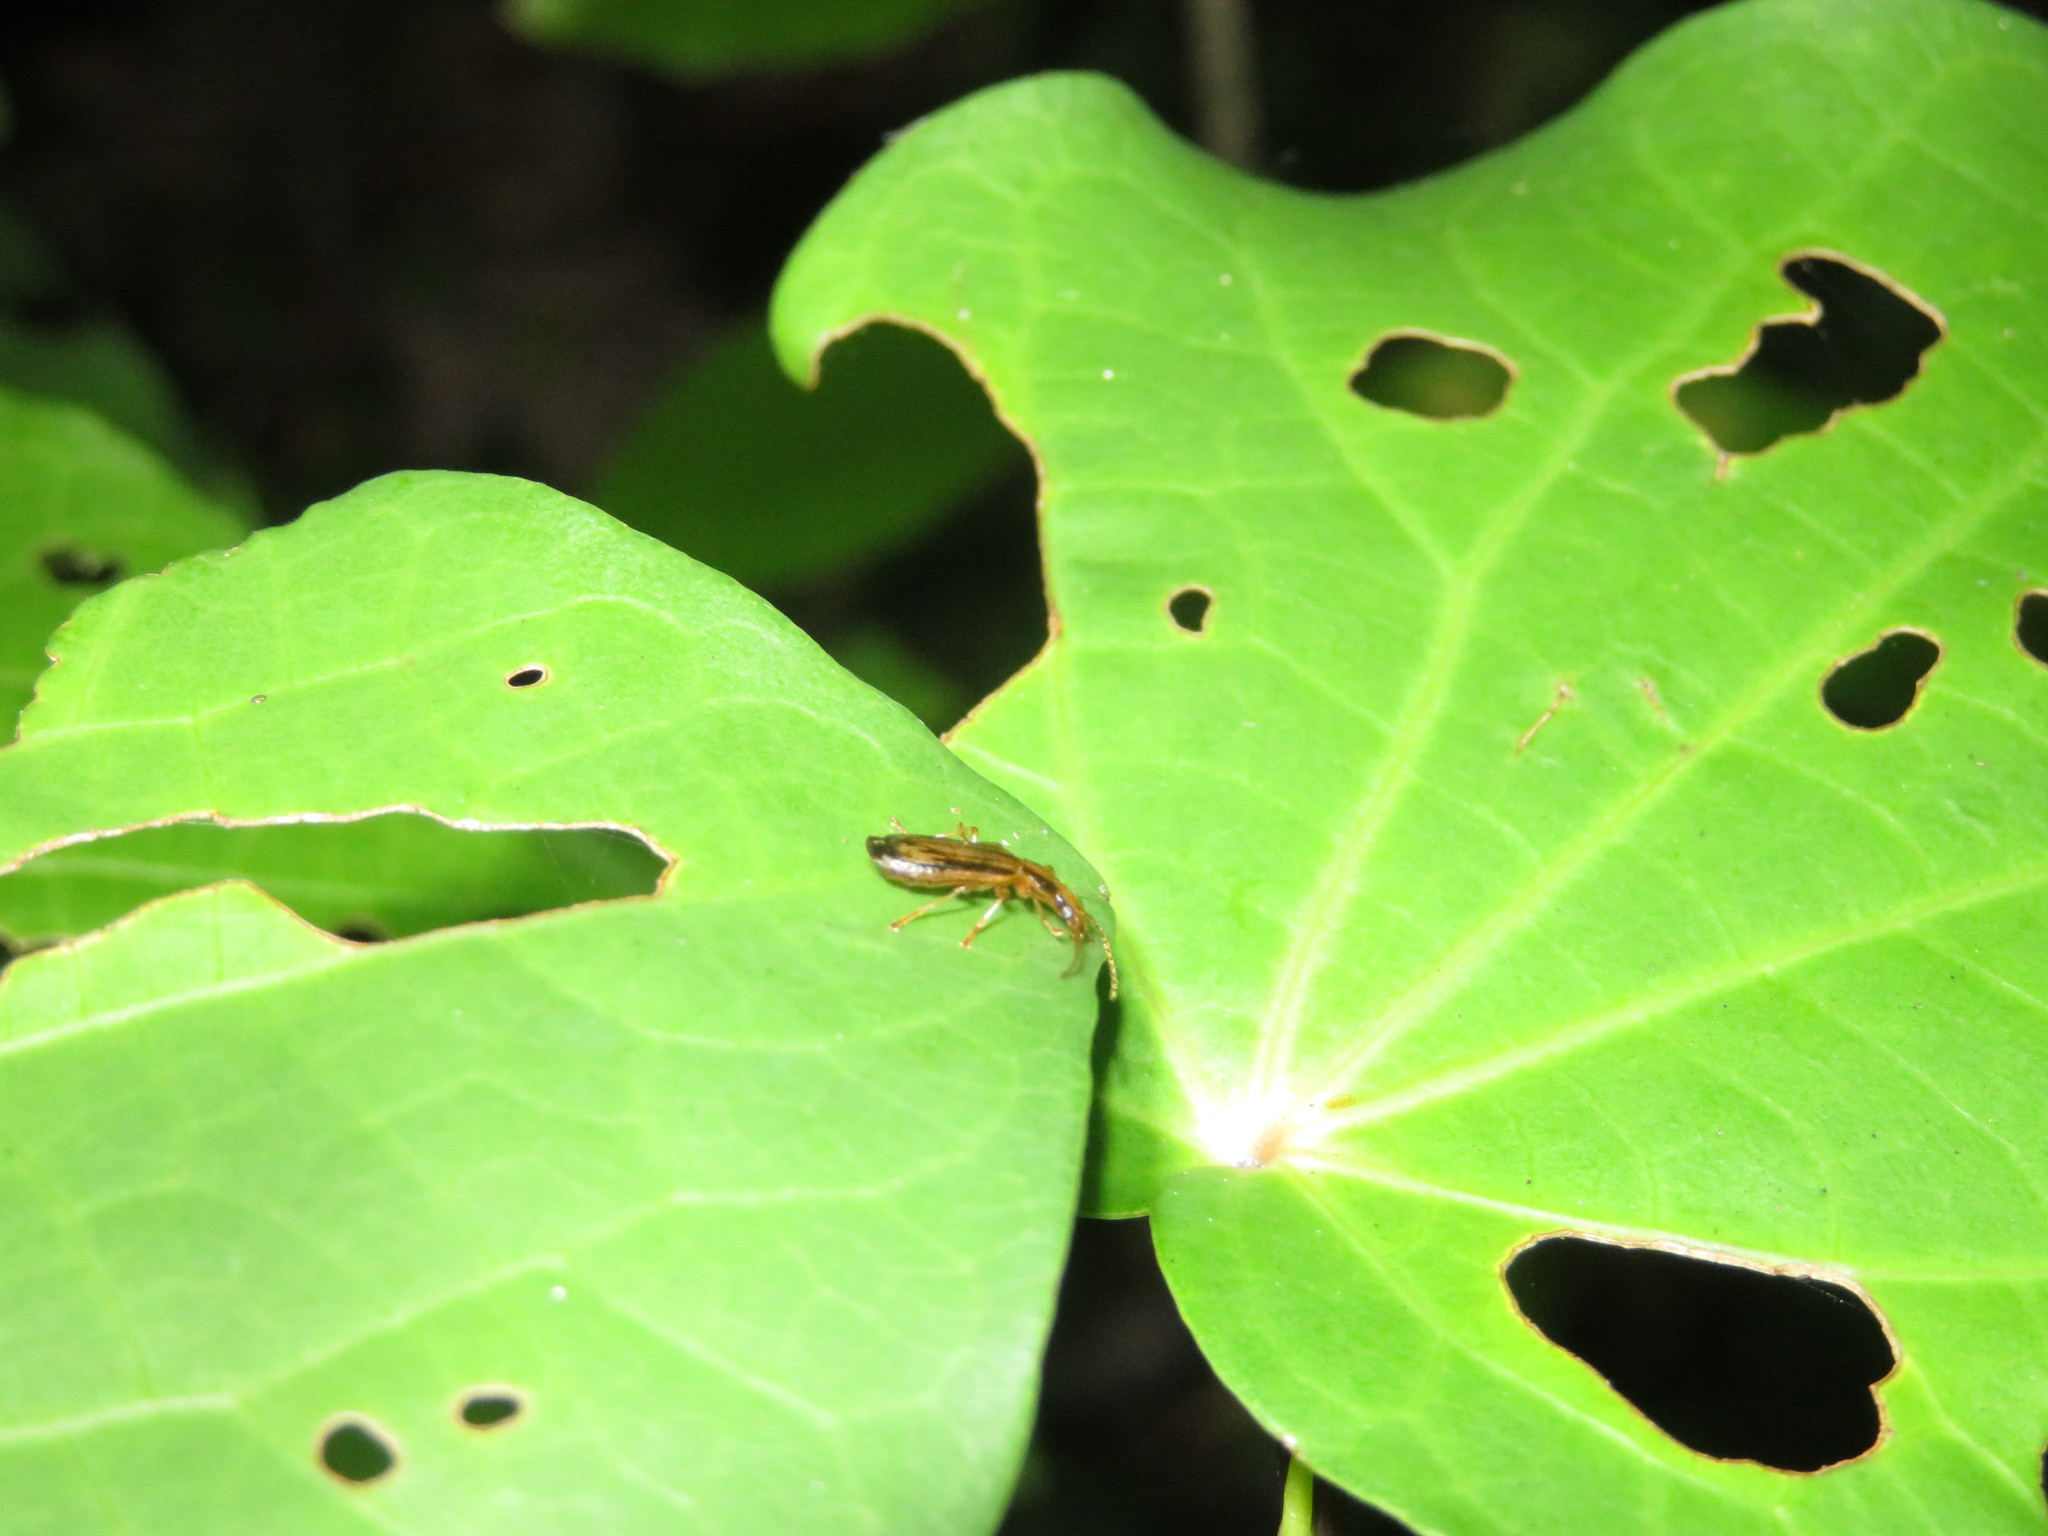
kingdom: Animalia
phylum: Arthropoda
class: Insecta
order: Coleoptera
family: Carabidae
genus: Demetrida
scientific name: Demetrida lineella
